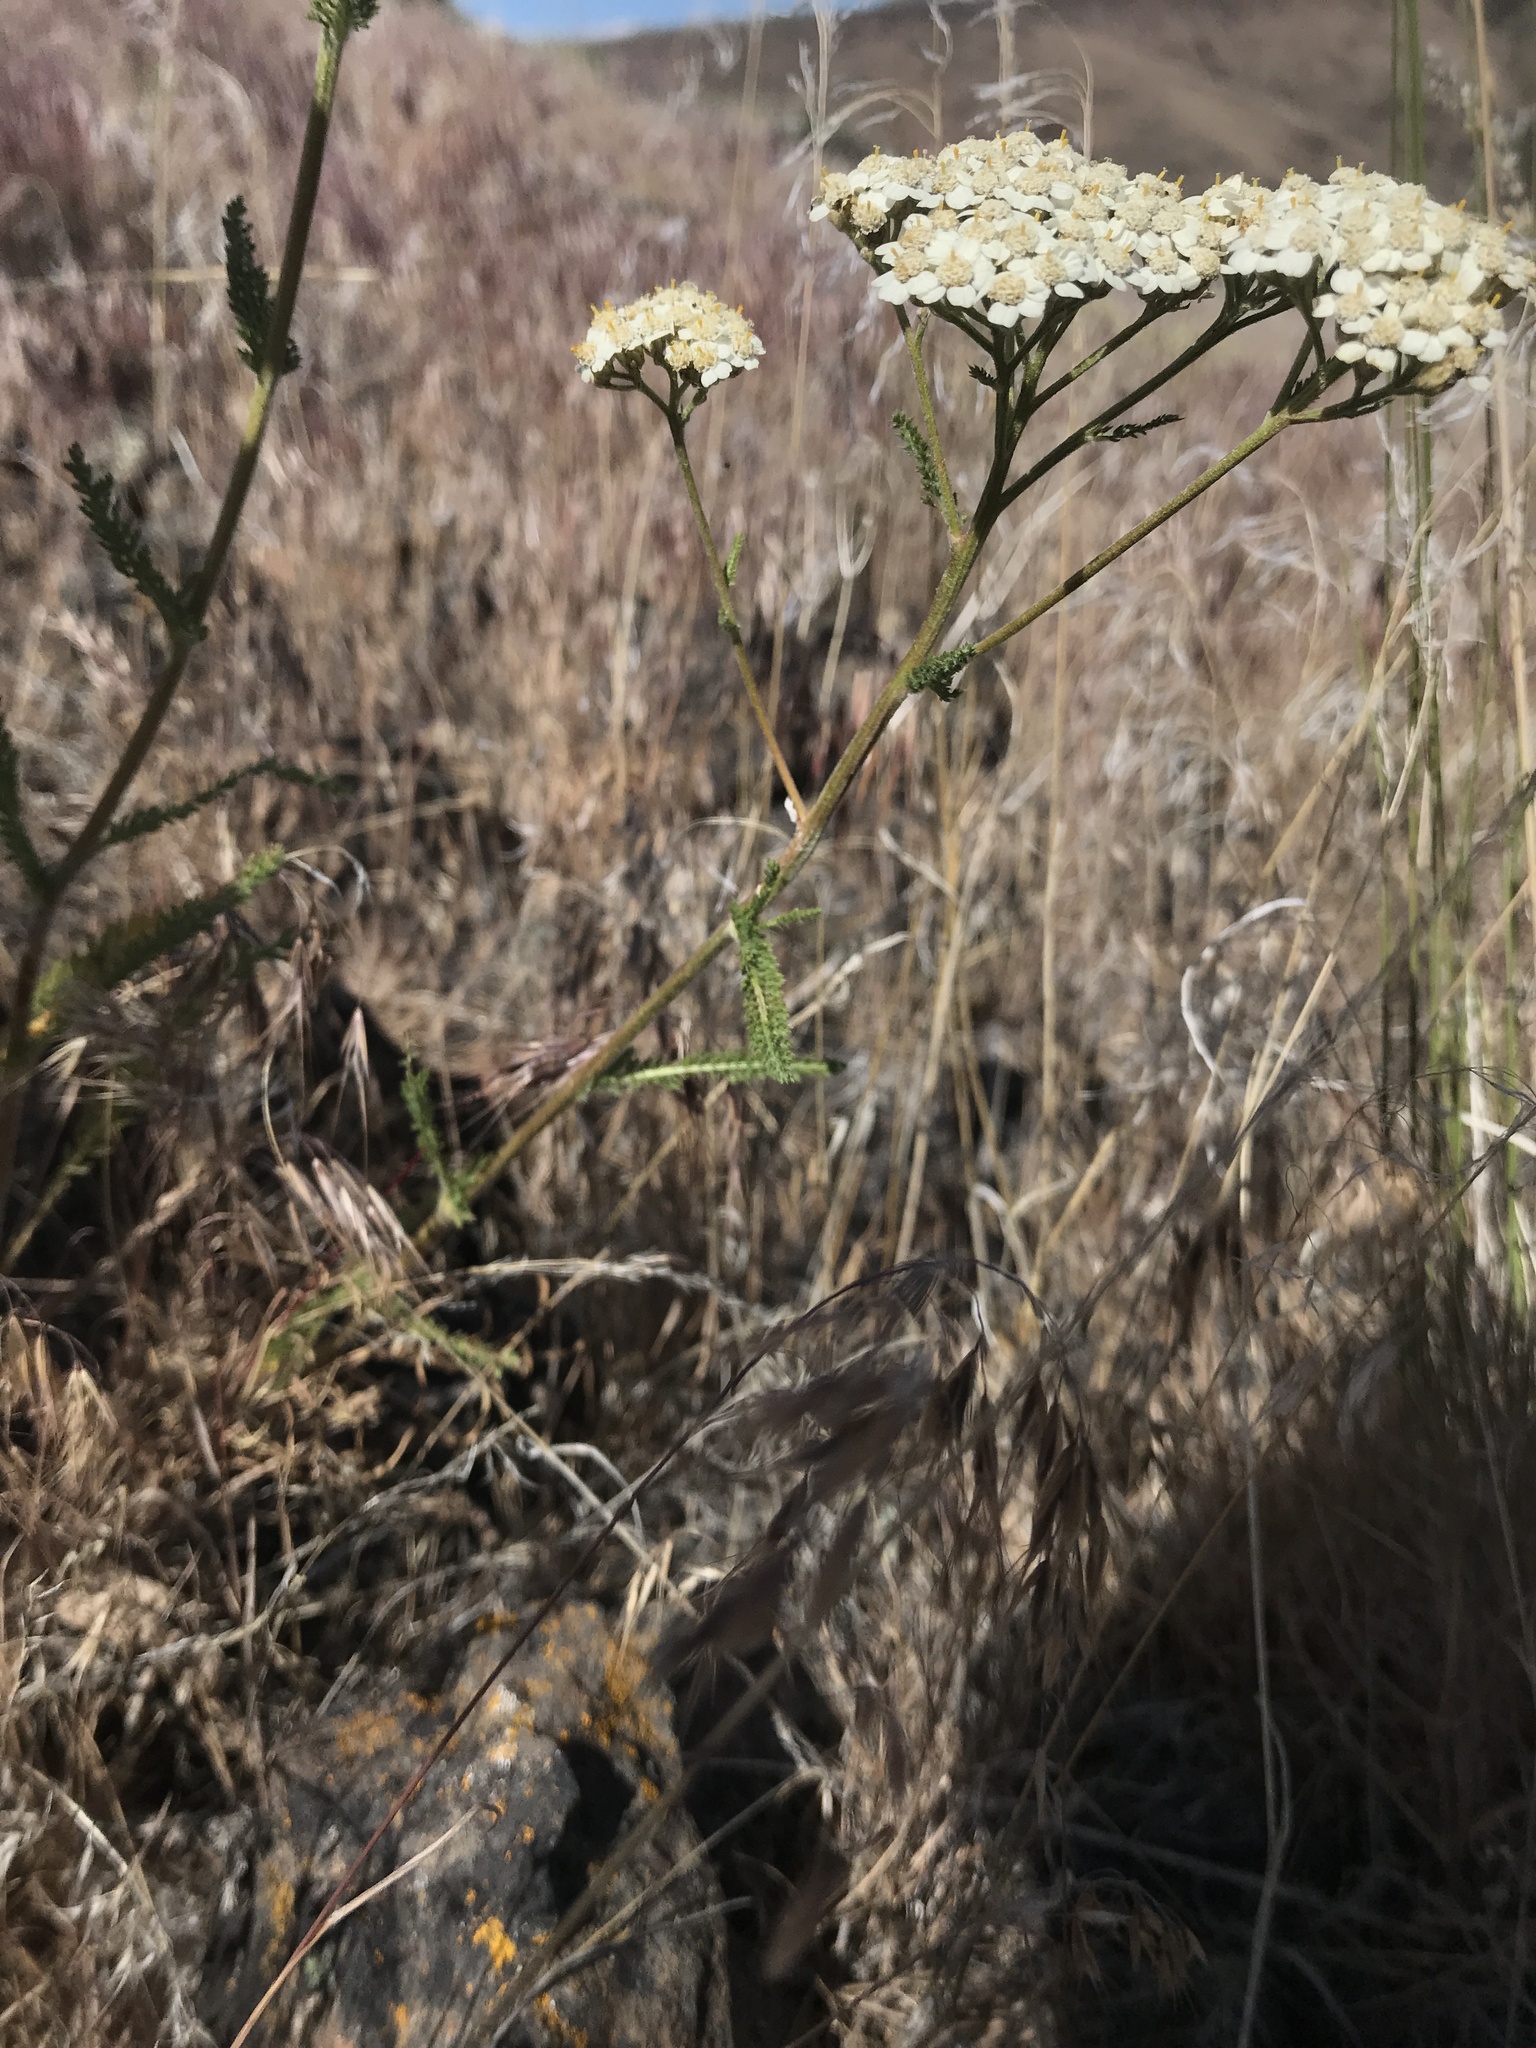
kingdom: Plantae
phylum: Tracheophyta
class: Magnoliopsida
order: Asterales
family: Asteraceae
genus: Achillea
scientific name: Achillea millefolium
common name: Yarrow
